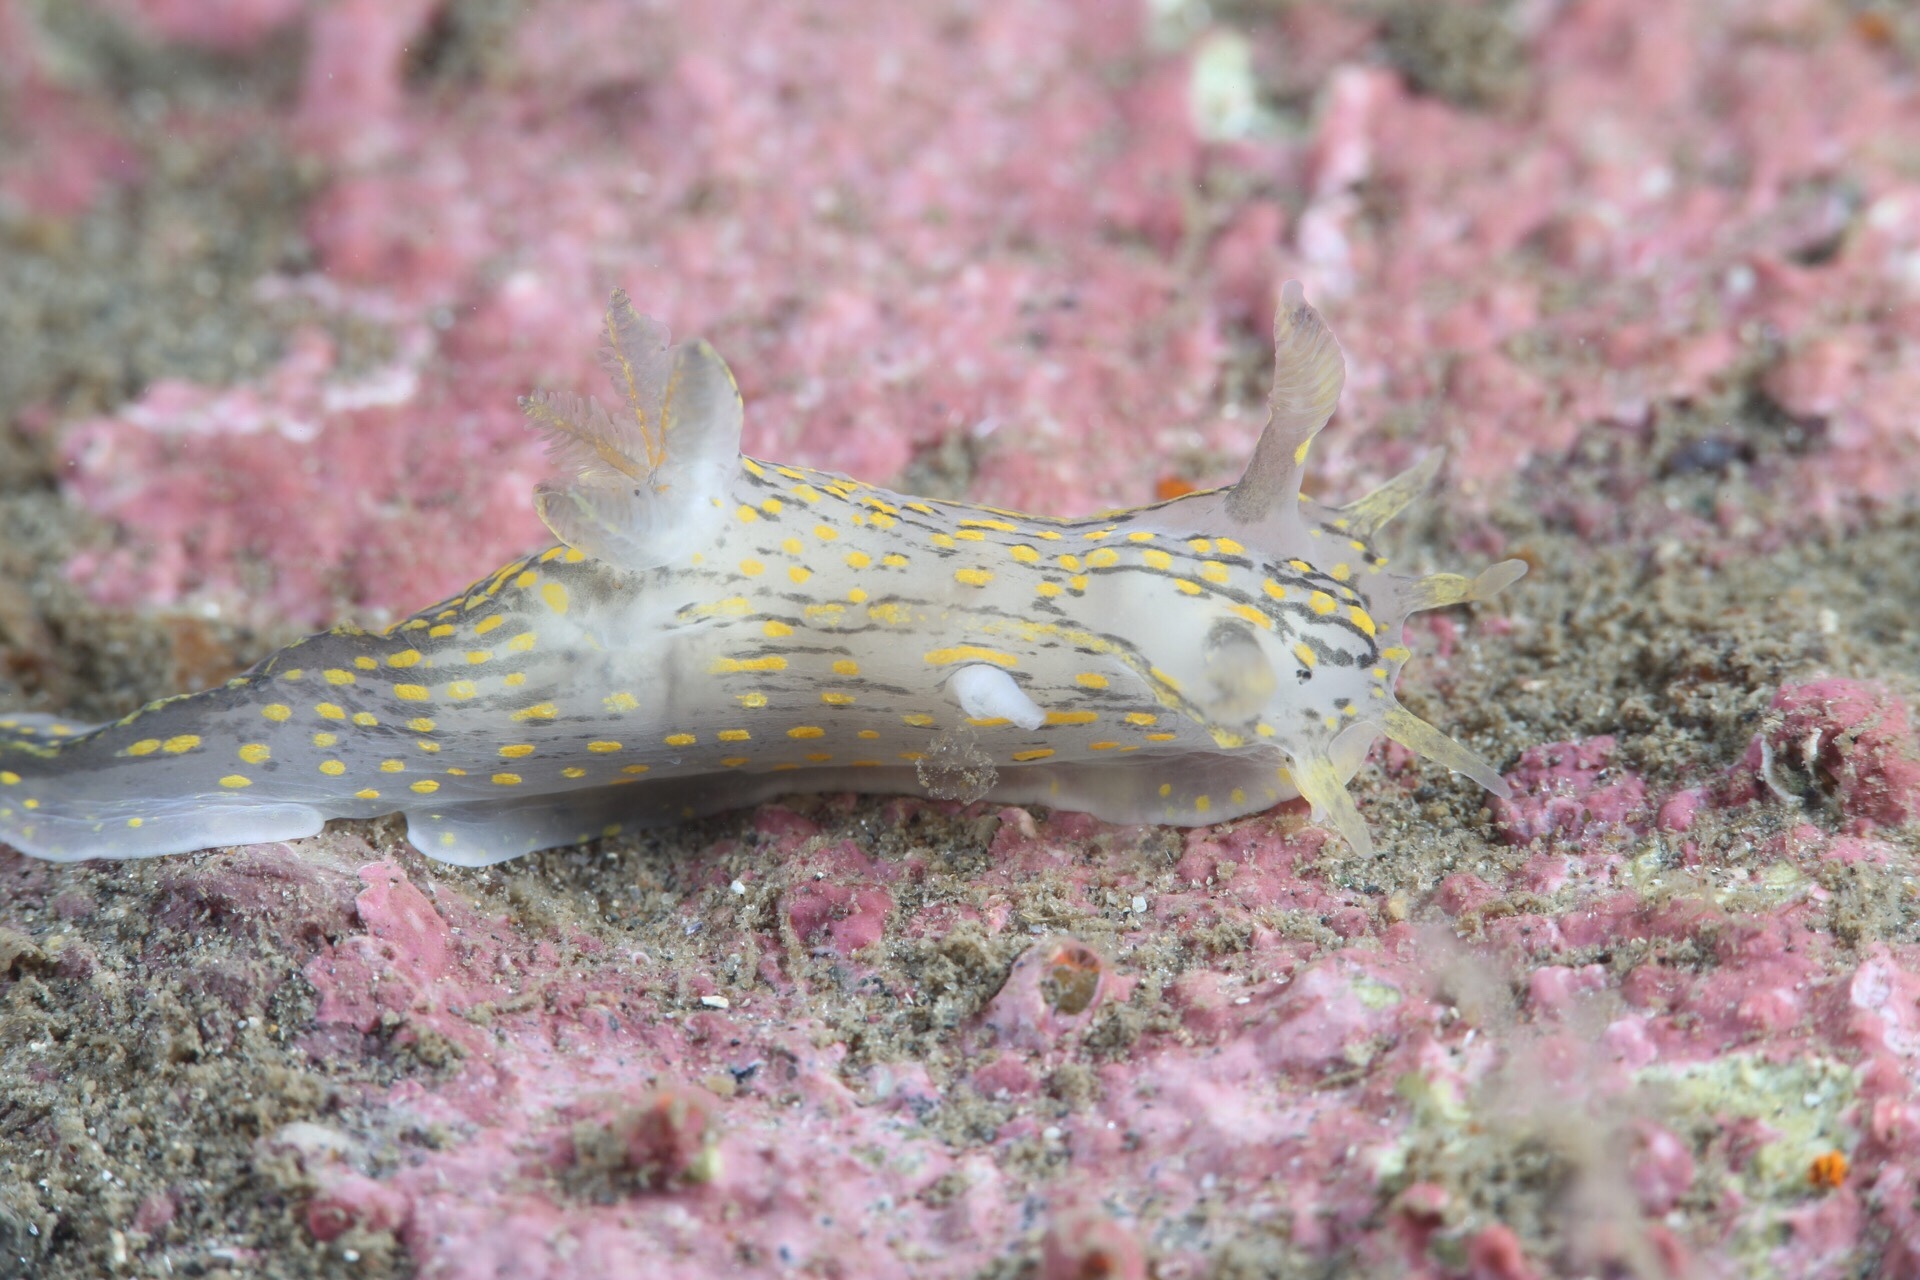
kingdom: Animalia
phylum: Mollusca
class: Gastropoda
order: Nudibranchia
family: Polyceridae
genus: Polycera
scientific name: Polycera quadrilineata
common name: Four-striped polycera
